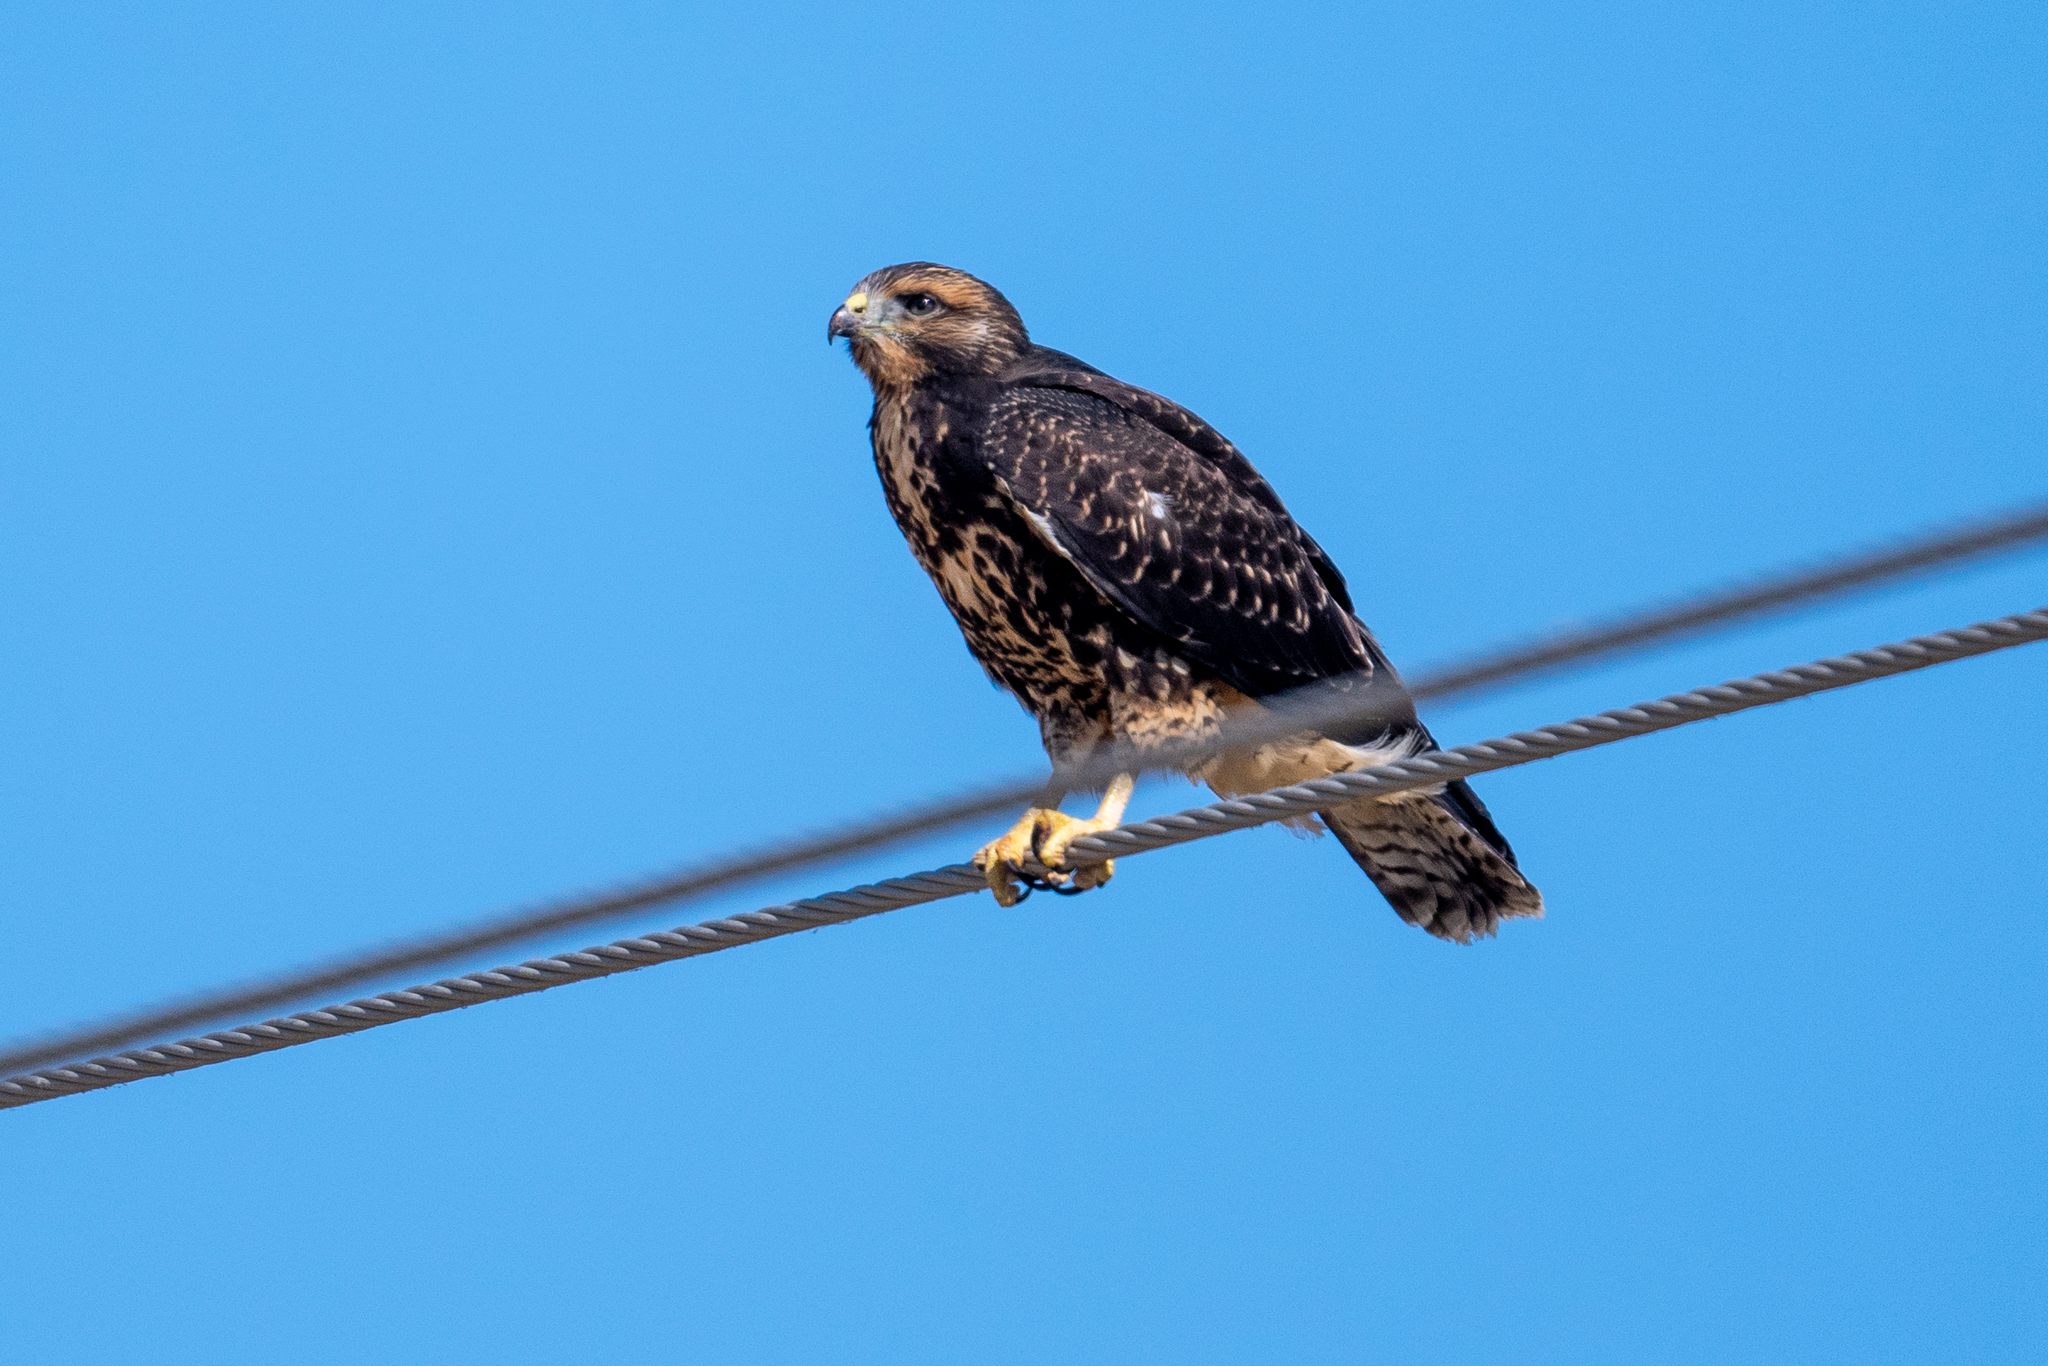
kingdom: Animalia
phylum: Chordata
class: Aves
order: Accipitriformes
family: Accipitridae
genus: Buteo
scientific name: Buteo swainsoni
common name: Swainson's hawk
